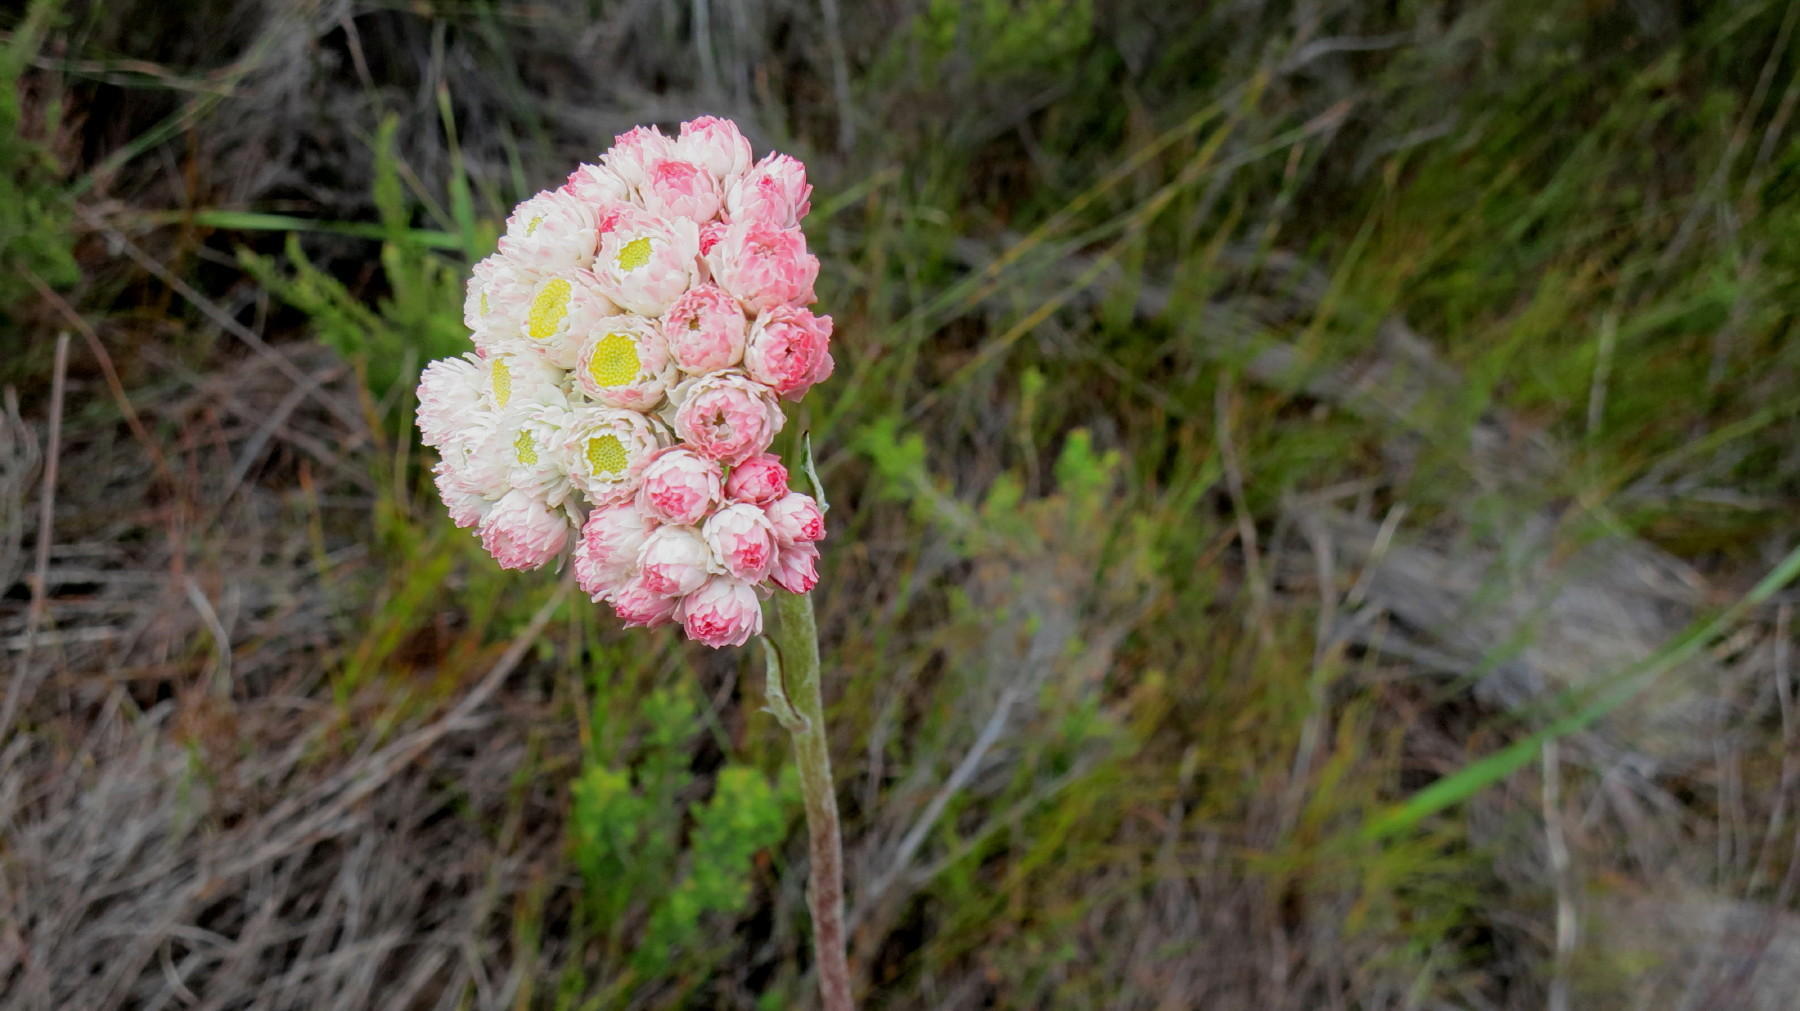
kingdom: Plantae
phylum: Tracheophyta
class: Magnoliopsida
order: Asterales
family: Asteraceae
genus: Helichrysum
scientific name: Helichrysum felinum
